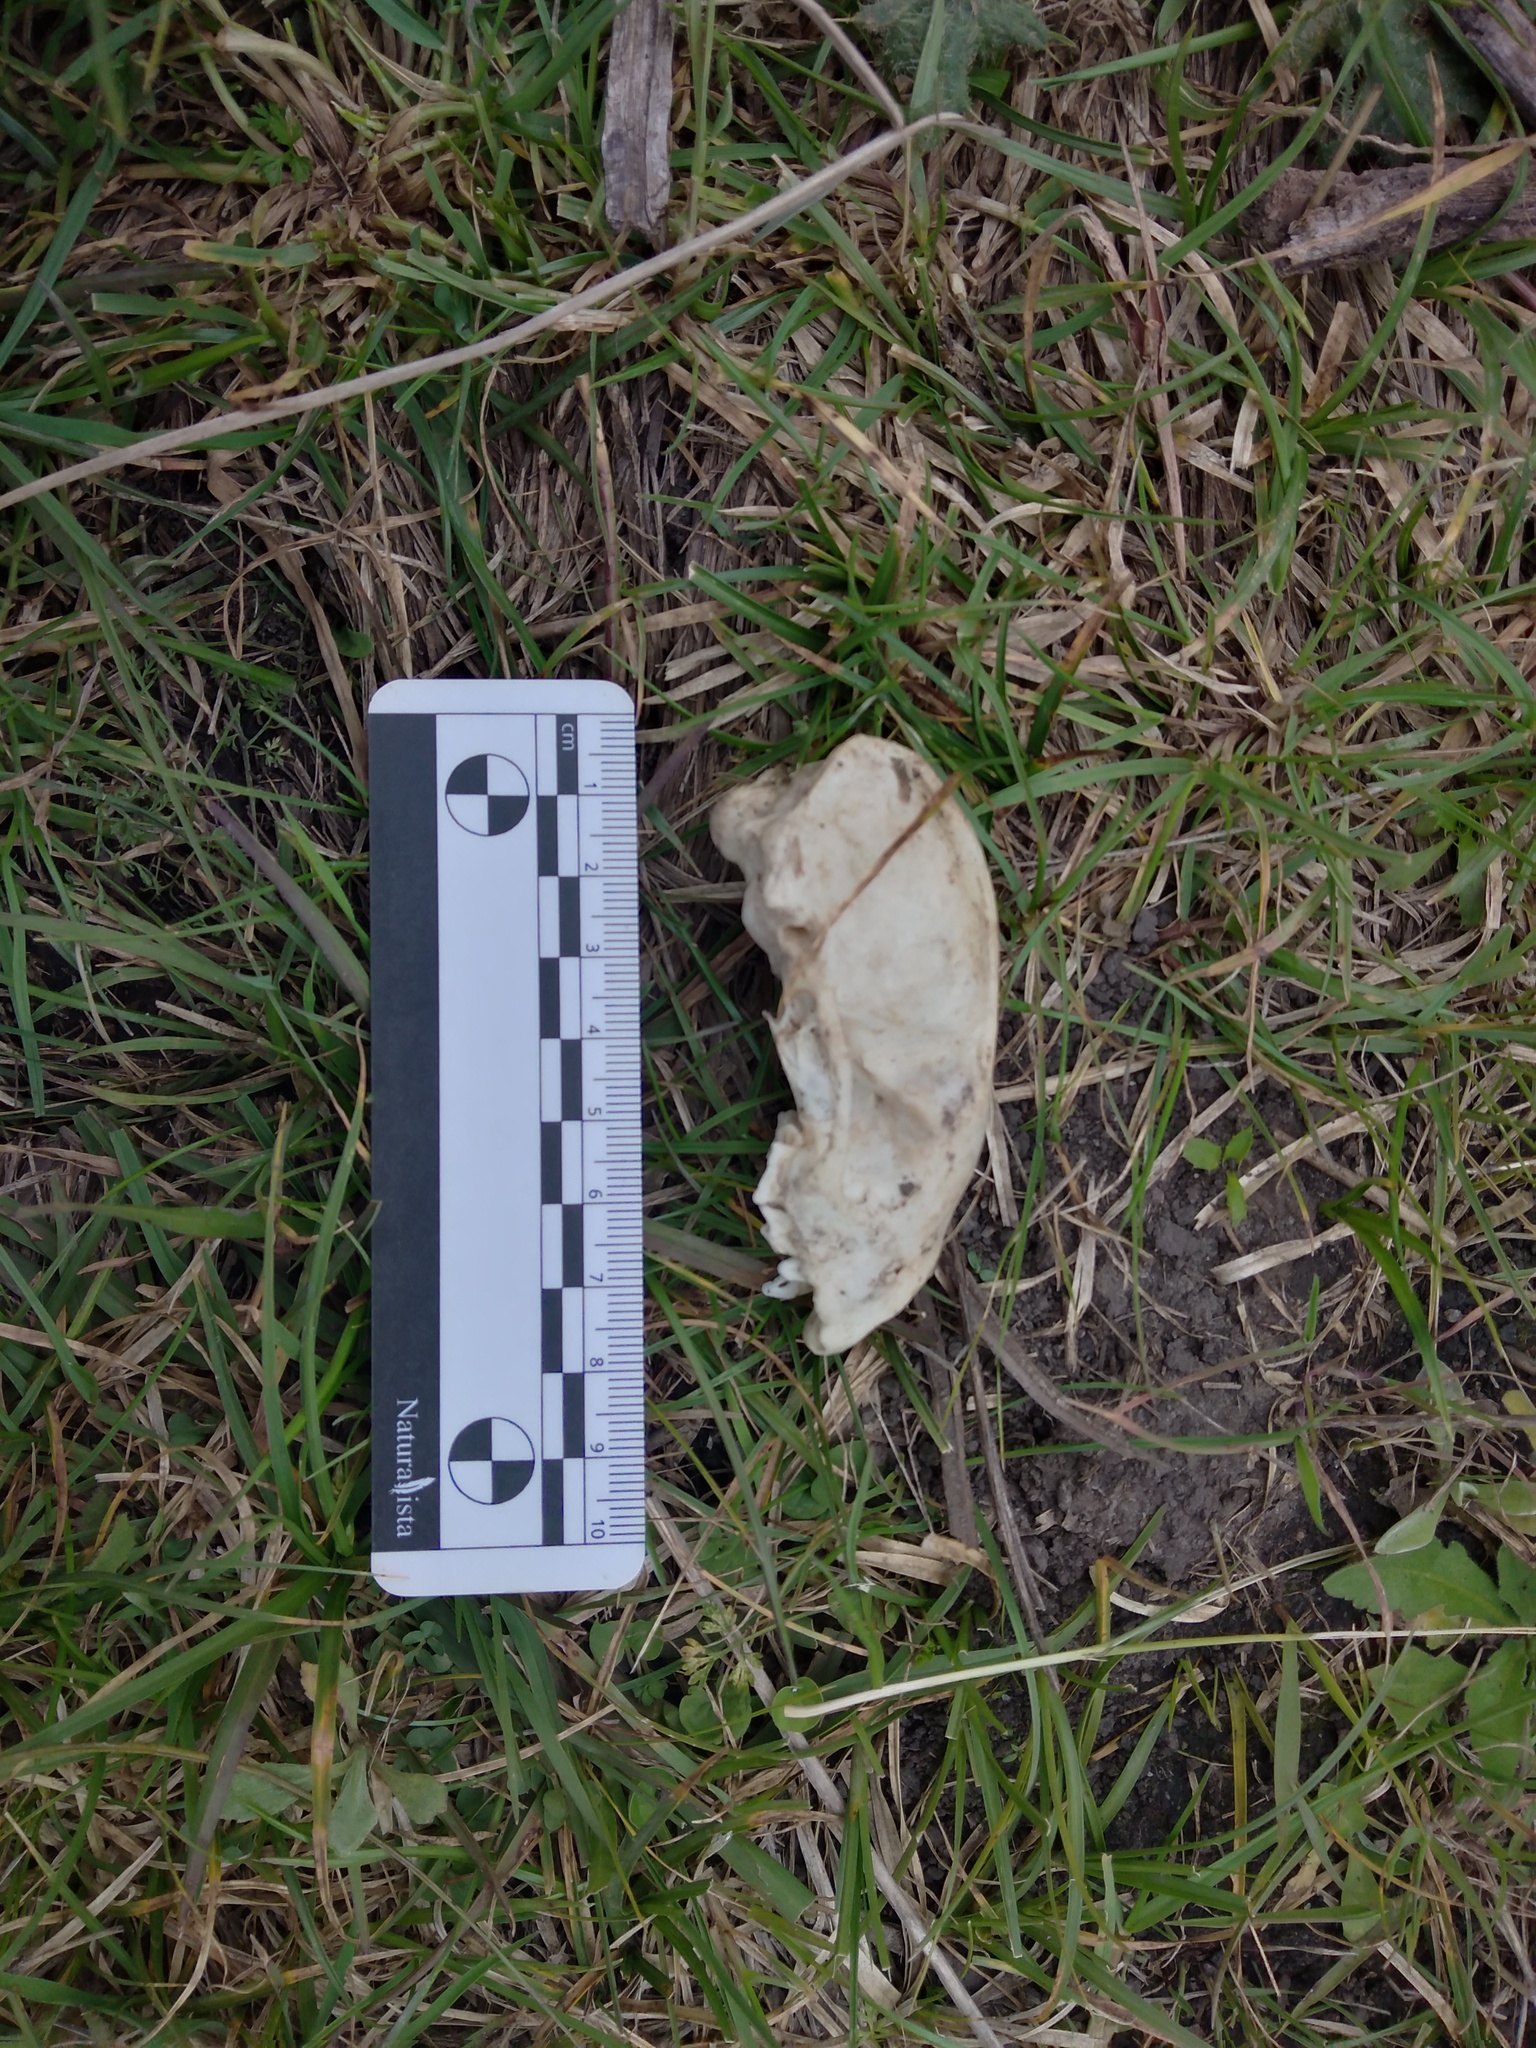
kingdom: Animalia
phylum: Chordata
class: Mammalia
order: Carnivora
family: Mephitidae
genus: Conepatus
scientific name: Conepatus chinga
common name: Molina's hog-nosed skunk
